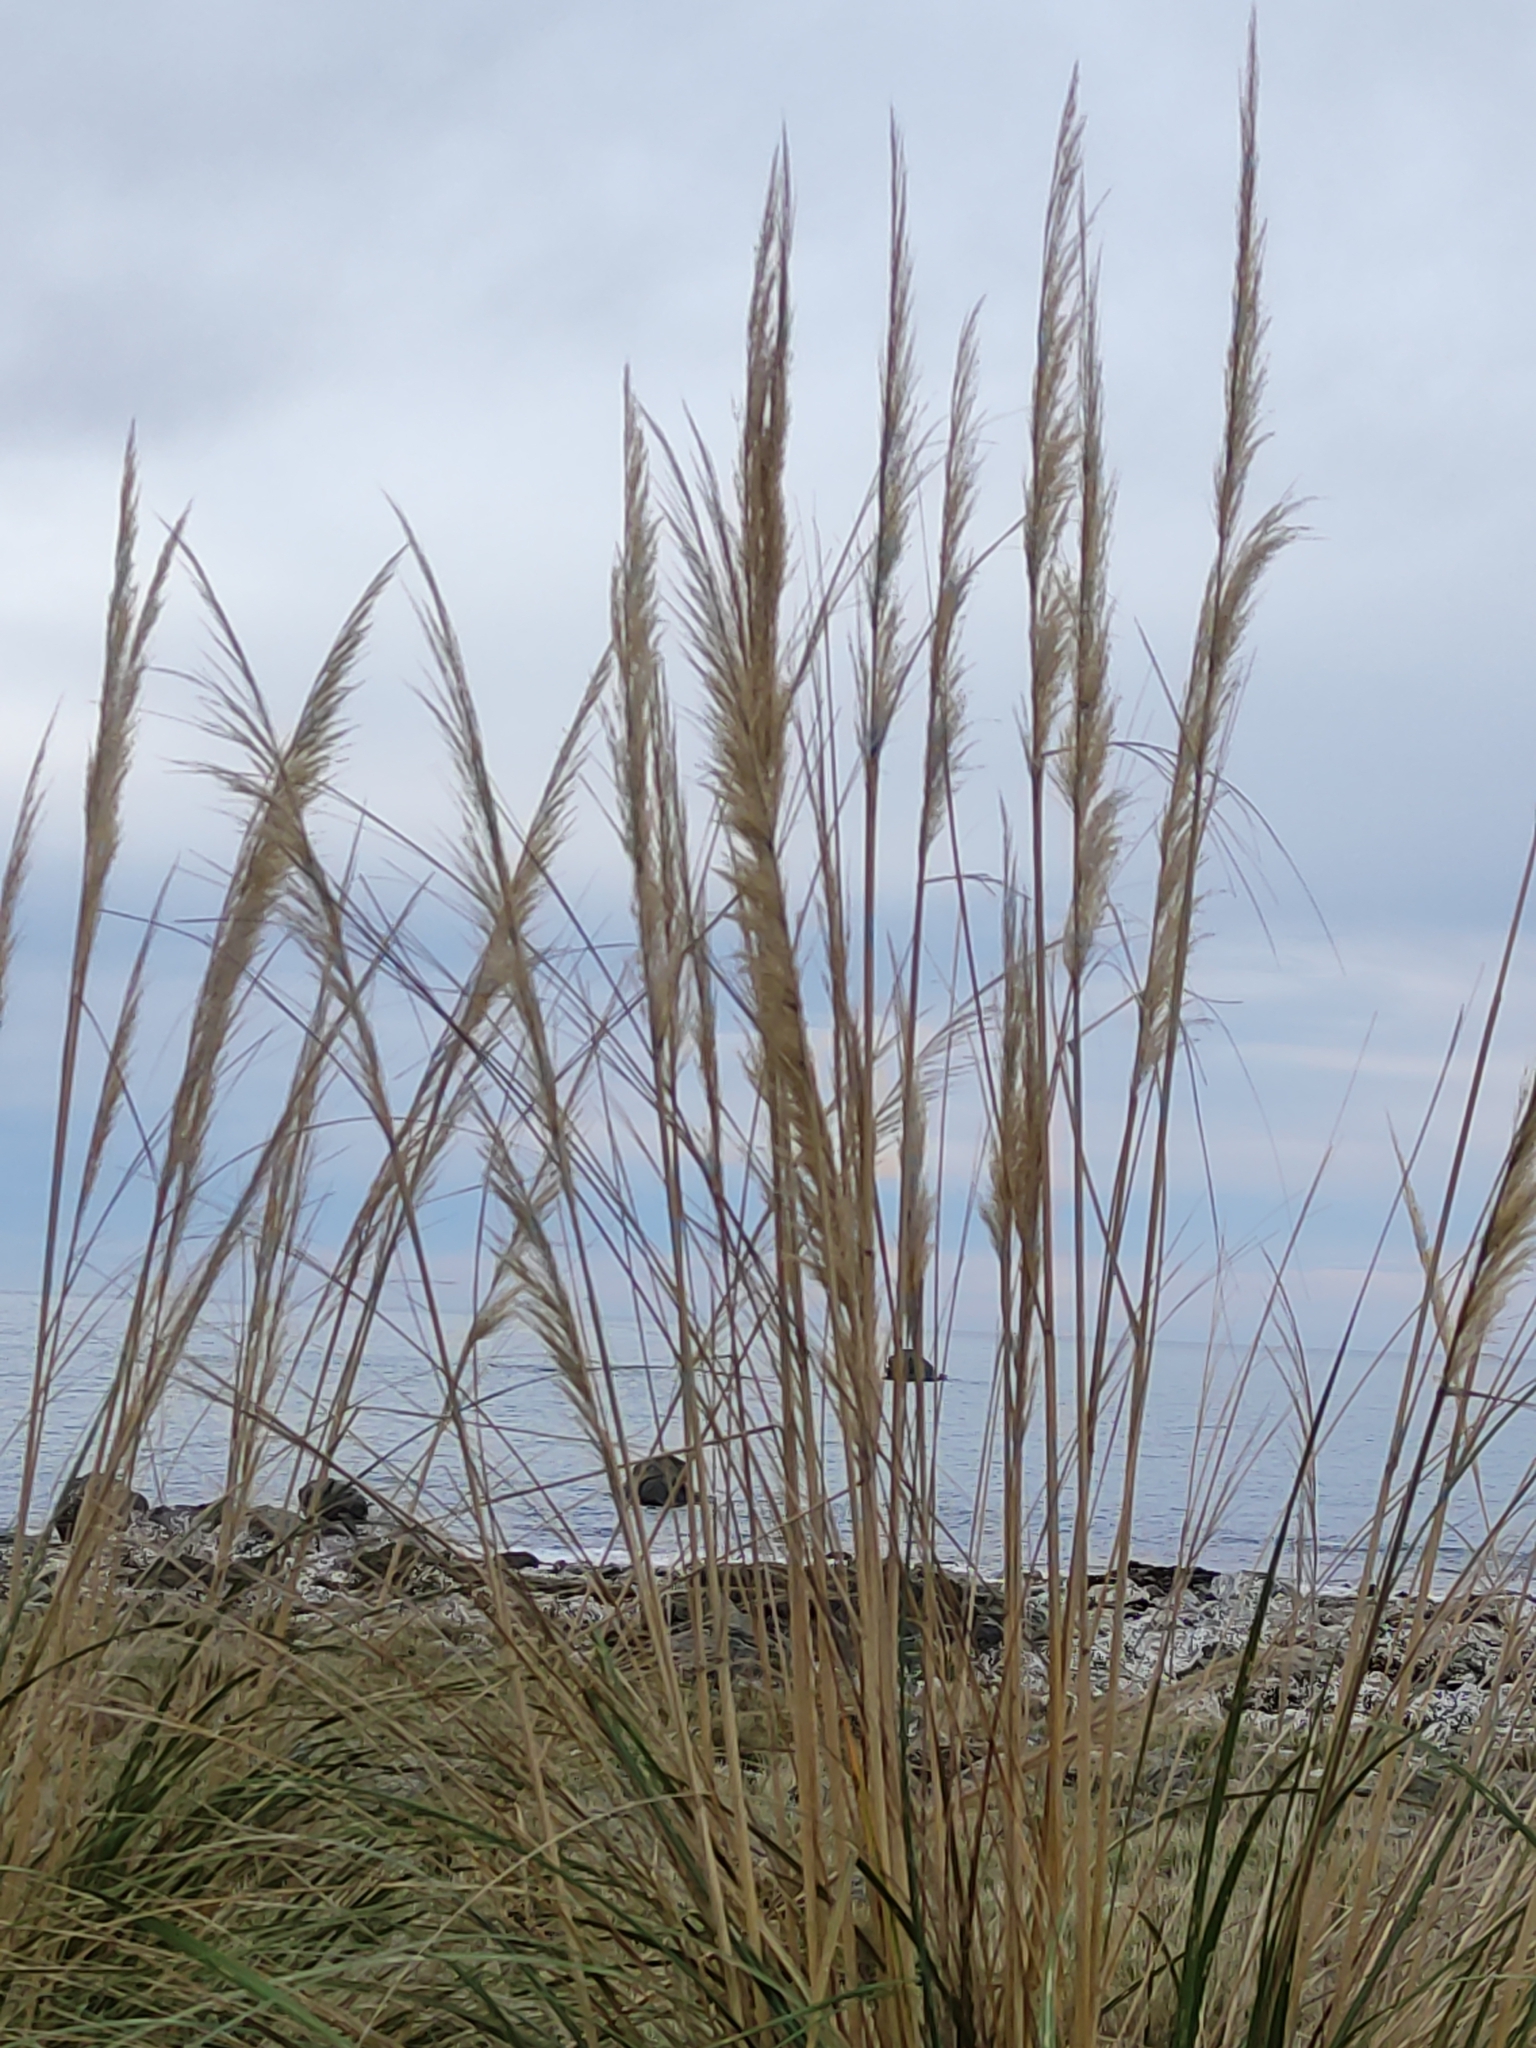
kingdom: Plantae
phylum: Tracheophyta
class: Liliopsida
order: Poales
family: Poaceae
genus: Austroderia
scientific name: Austroderia richardii
